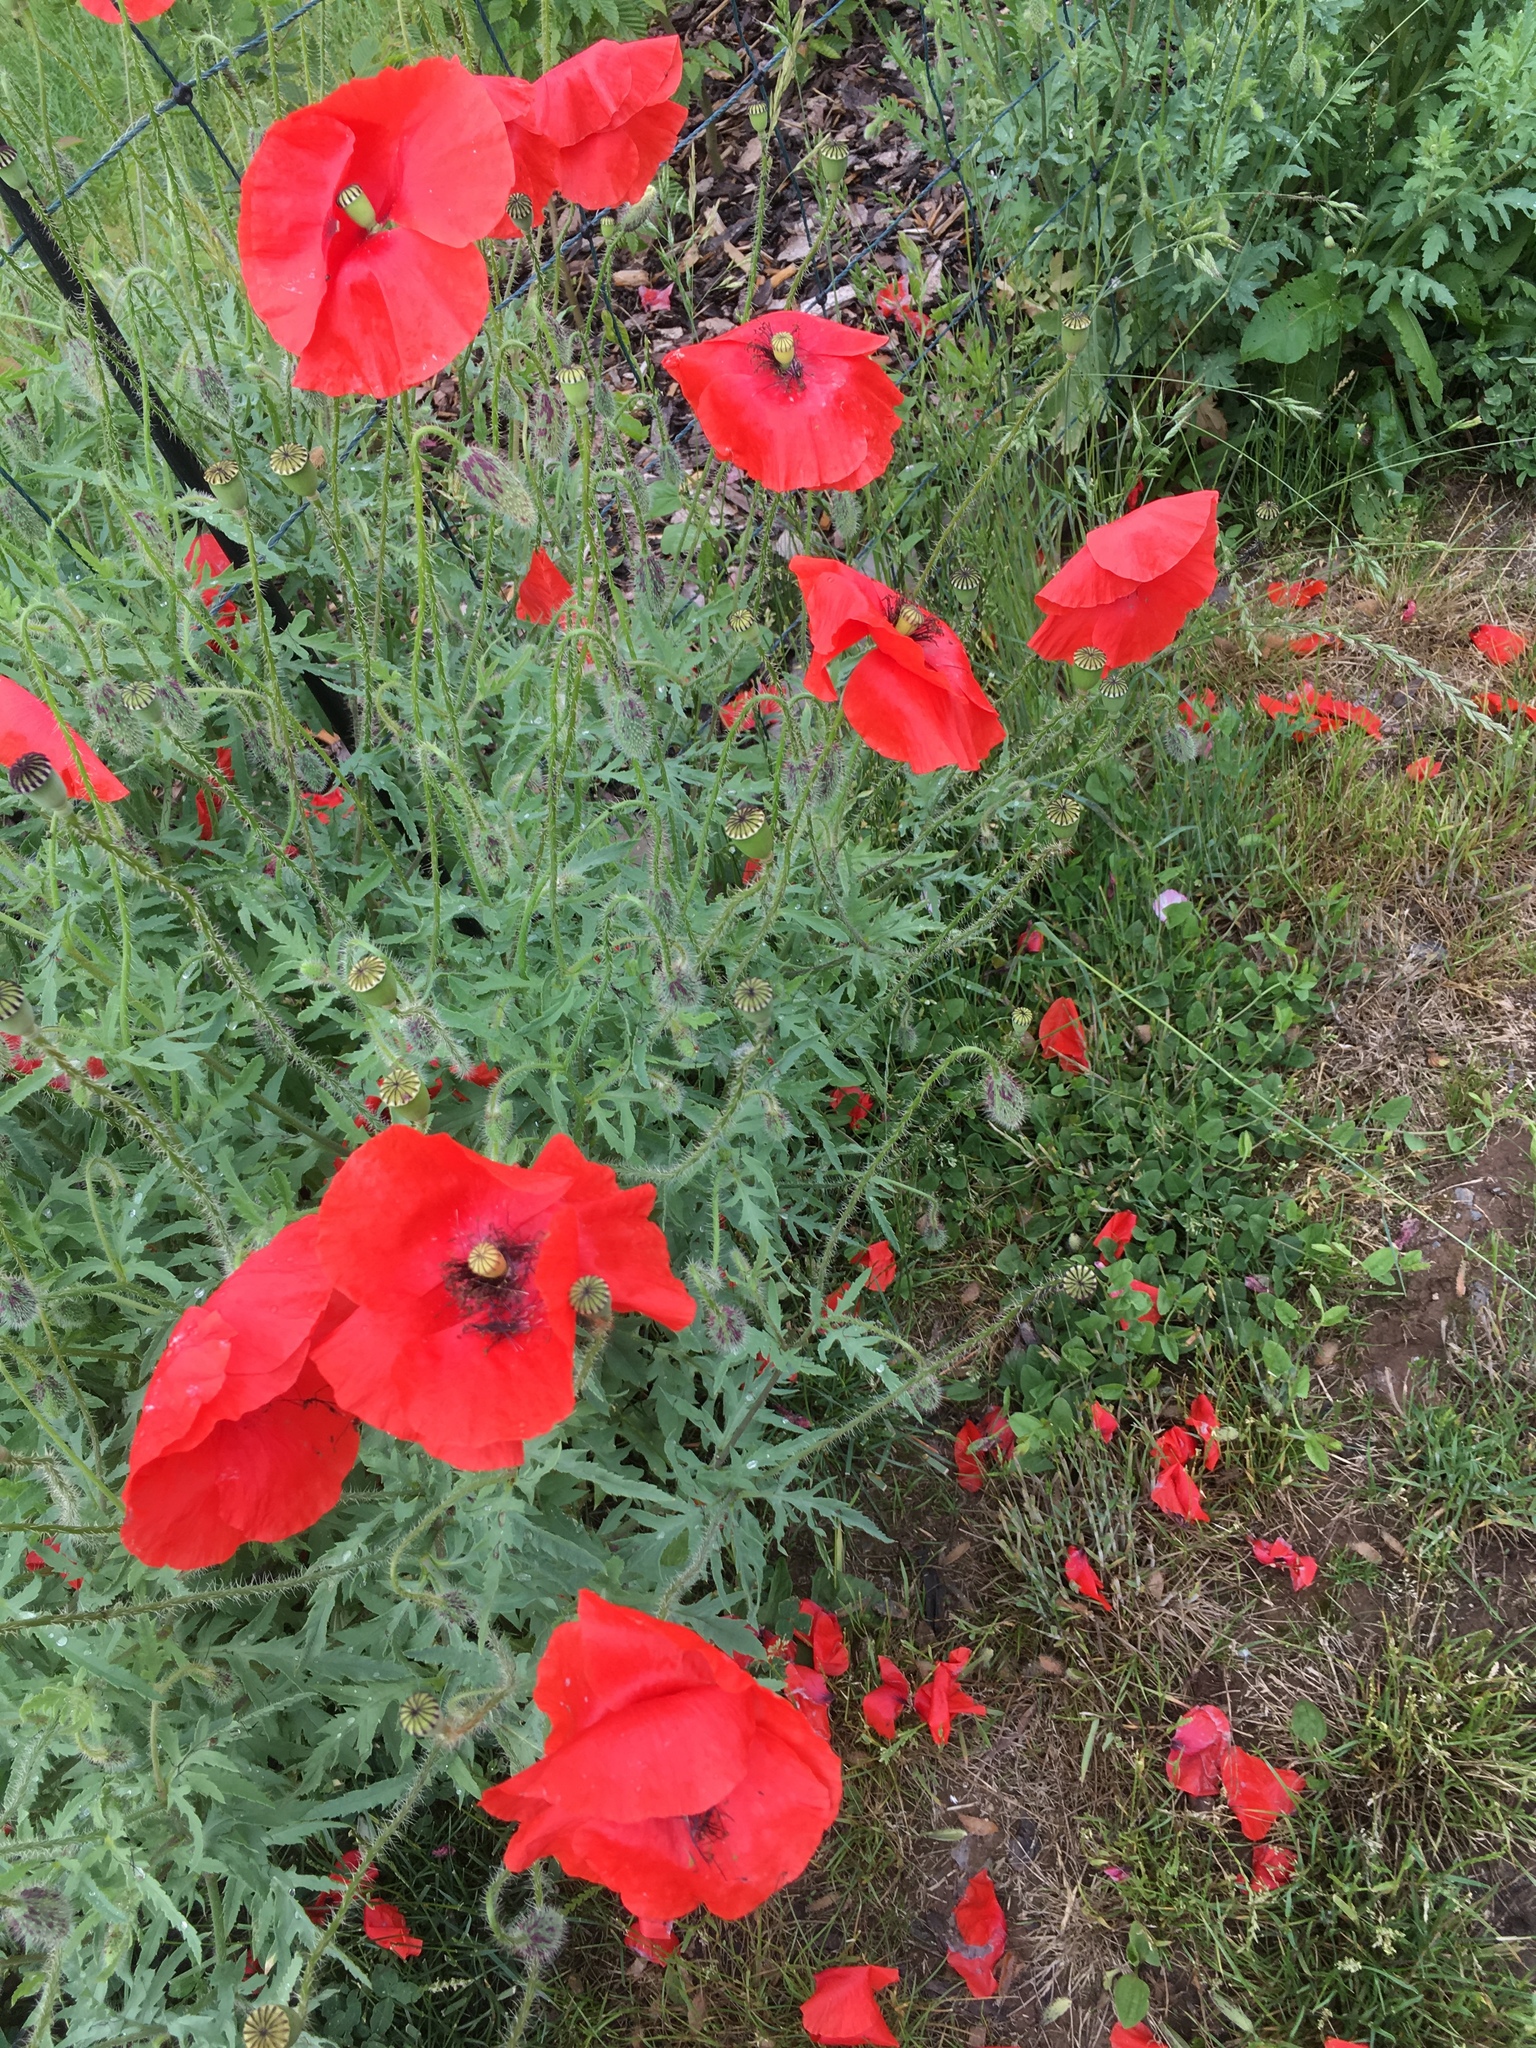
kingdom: Plantae
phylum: Tracheophyta
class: Magnoliopsida
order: Ranunculales
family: Papaveraceae
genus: Papaver
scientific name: Papaver rhoeas
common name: Corn poppy
